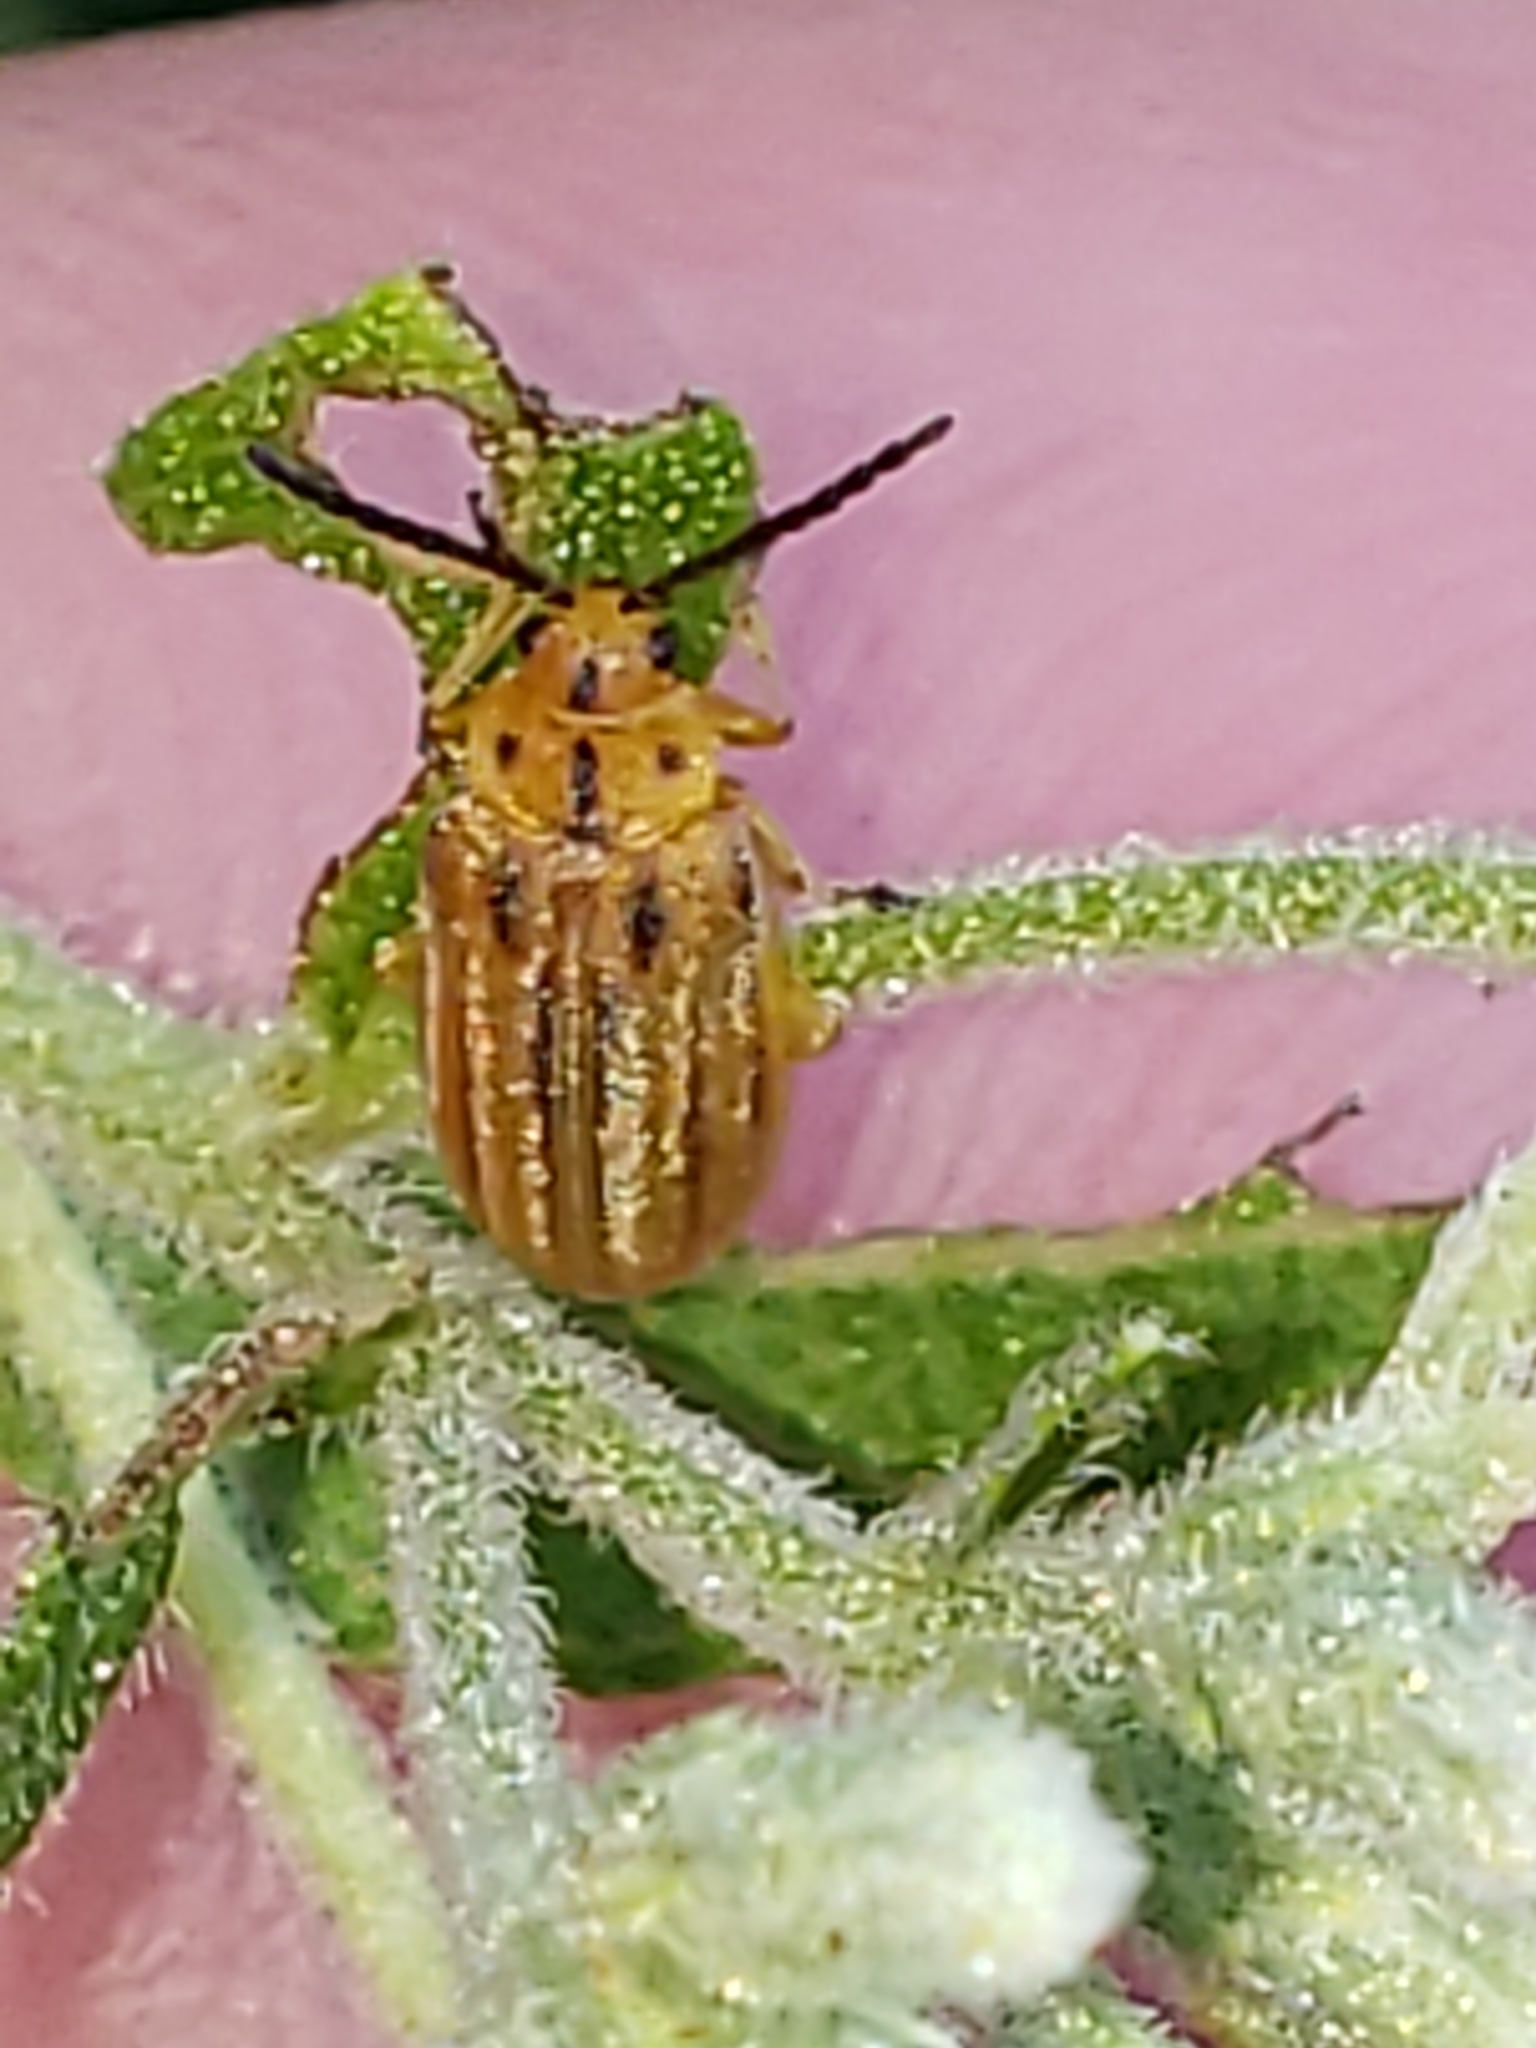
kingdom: Animalia
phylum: Arthropoda
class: Insecta
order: Coleoptera
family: Chrysomelidae
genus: Ophraella
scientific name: Ophraella notata
